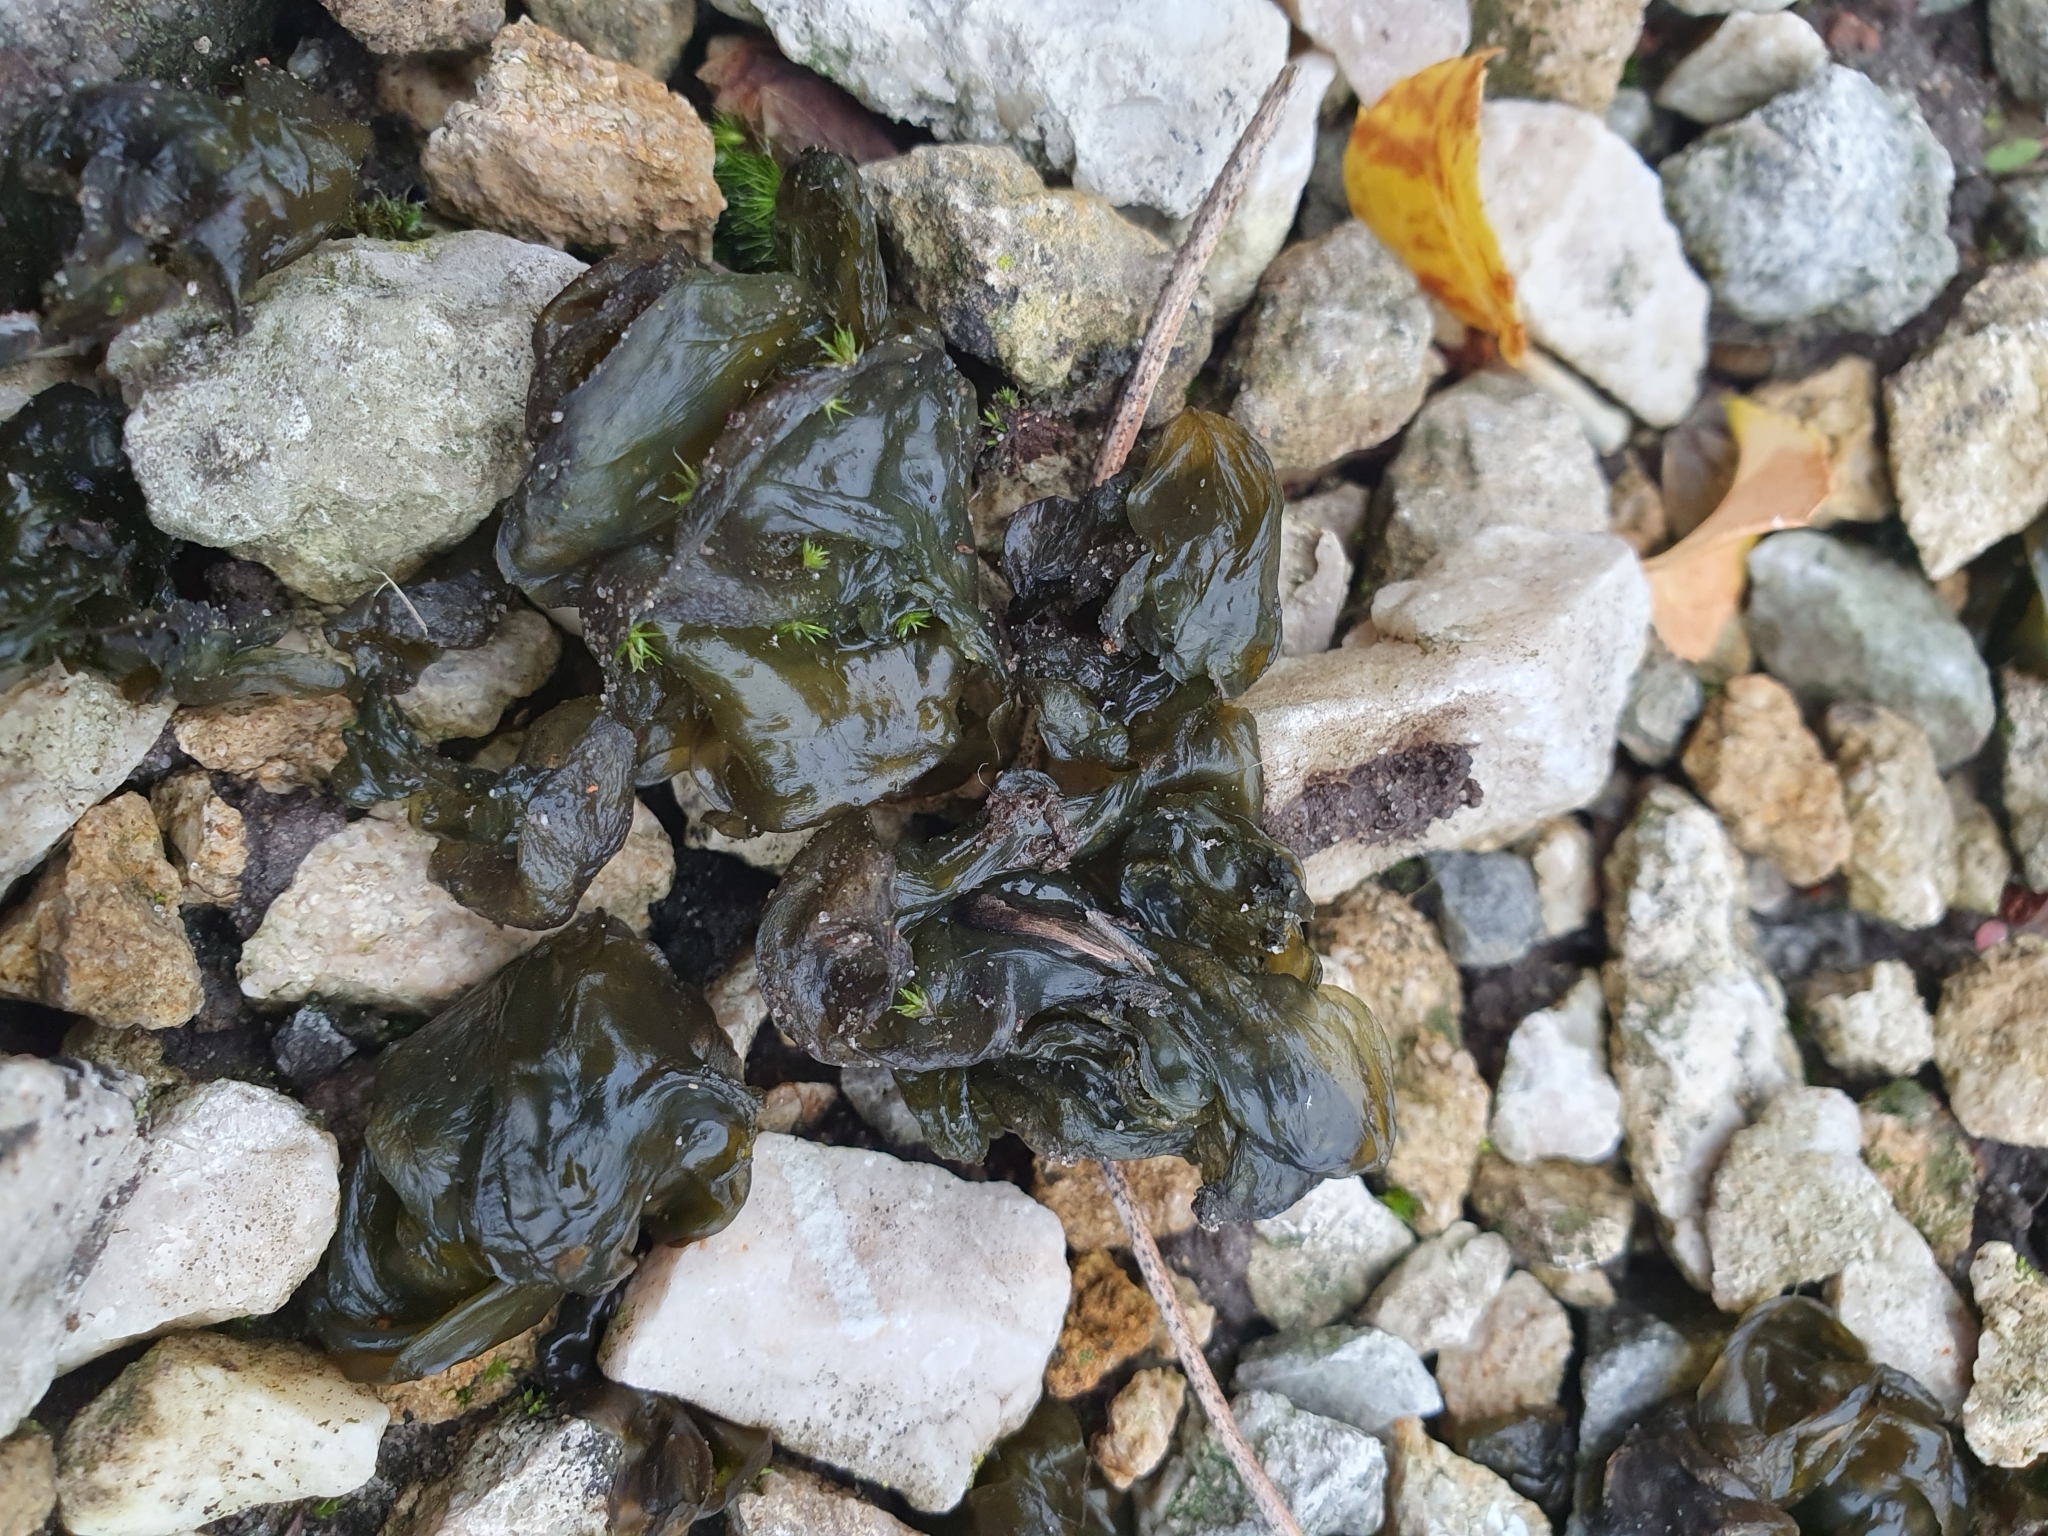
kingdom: Bacteria
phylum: Cyanobacteria
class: Cyanobacteriia
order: Cyanobacteriales
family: Nostocaceae
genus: Nostoc
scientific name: Nostoc commune
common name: Star jelly
